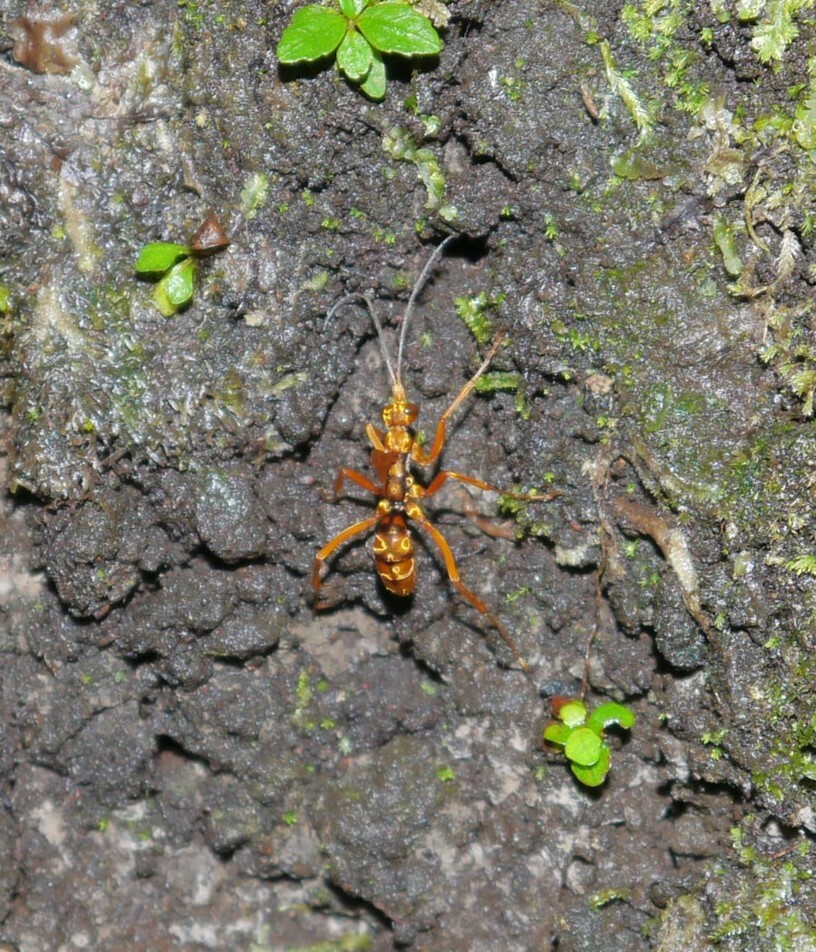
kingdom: Animalia
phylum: Arthropoda
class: Insecta
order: Hymenoptera
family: Pompilidae
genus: Sphictostethus
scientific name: Sphictostethus gravesii
